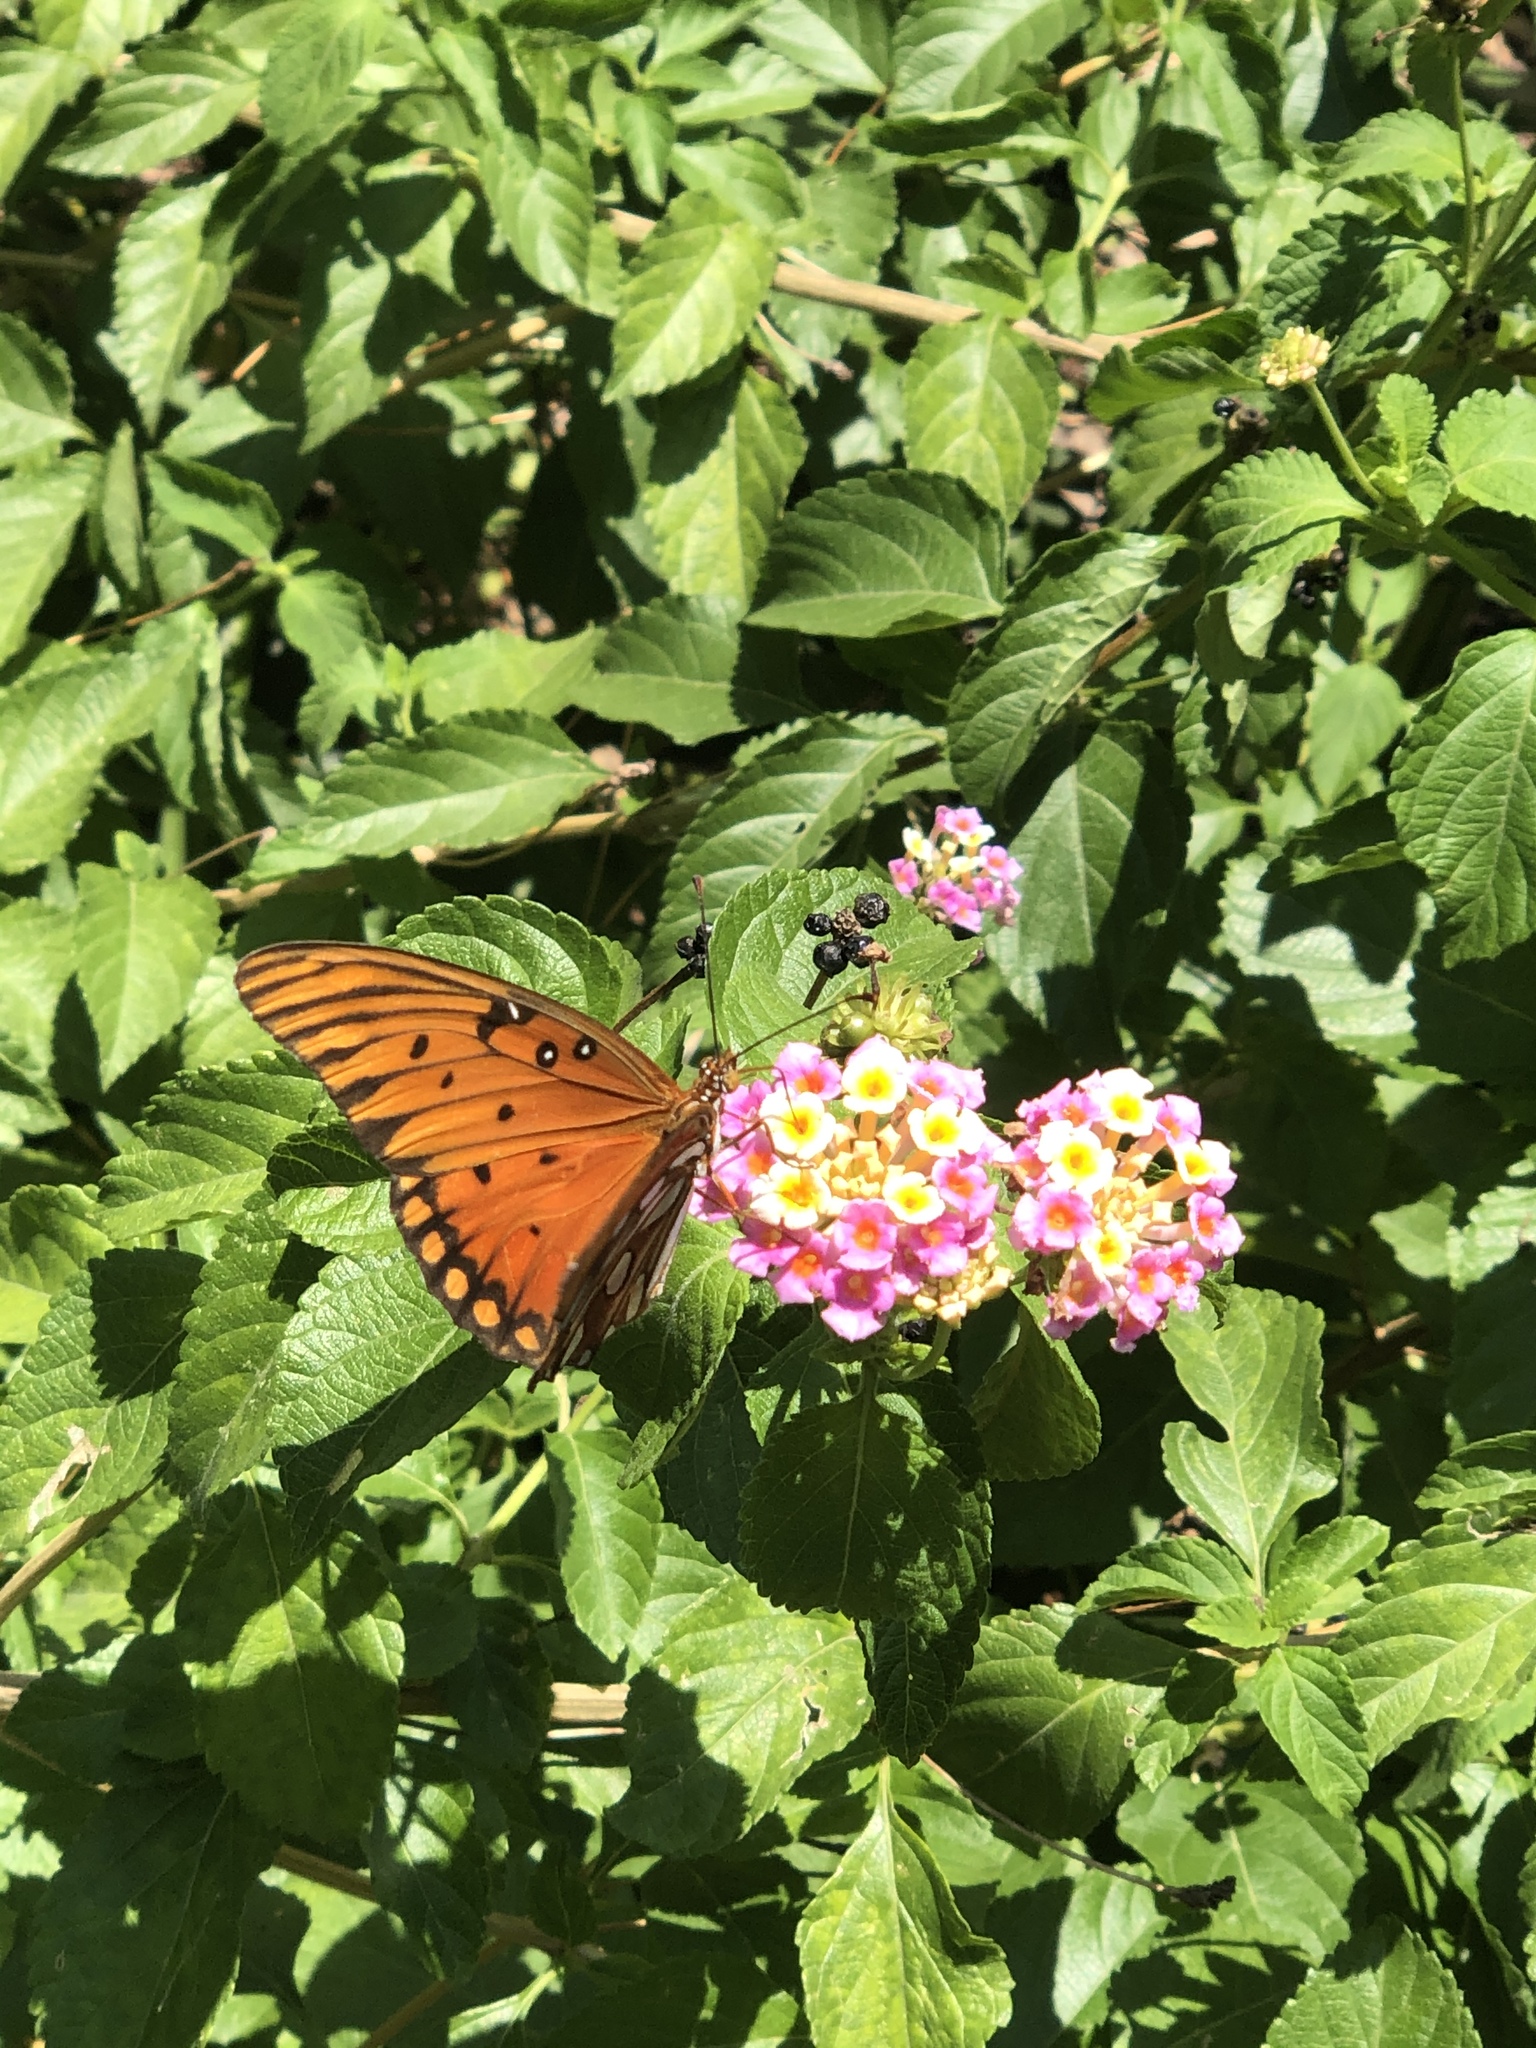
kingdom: Animalia
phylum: Arthropoda
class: Insecta
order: Lepidoptera
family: Nymphalidae
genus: Dione
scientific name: Dione vanillae
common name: Gulf fritillary
